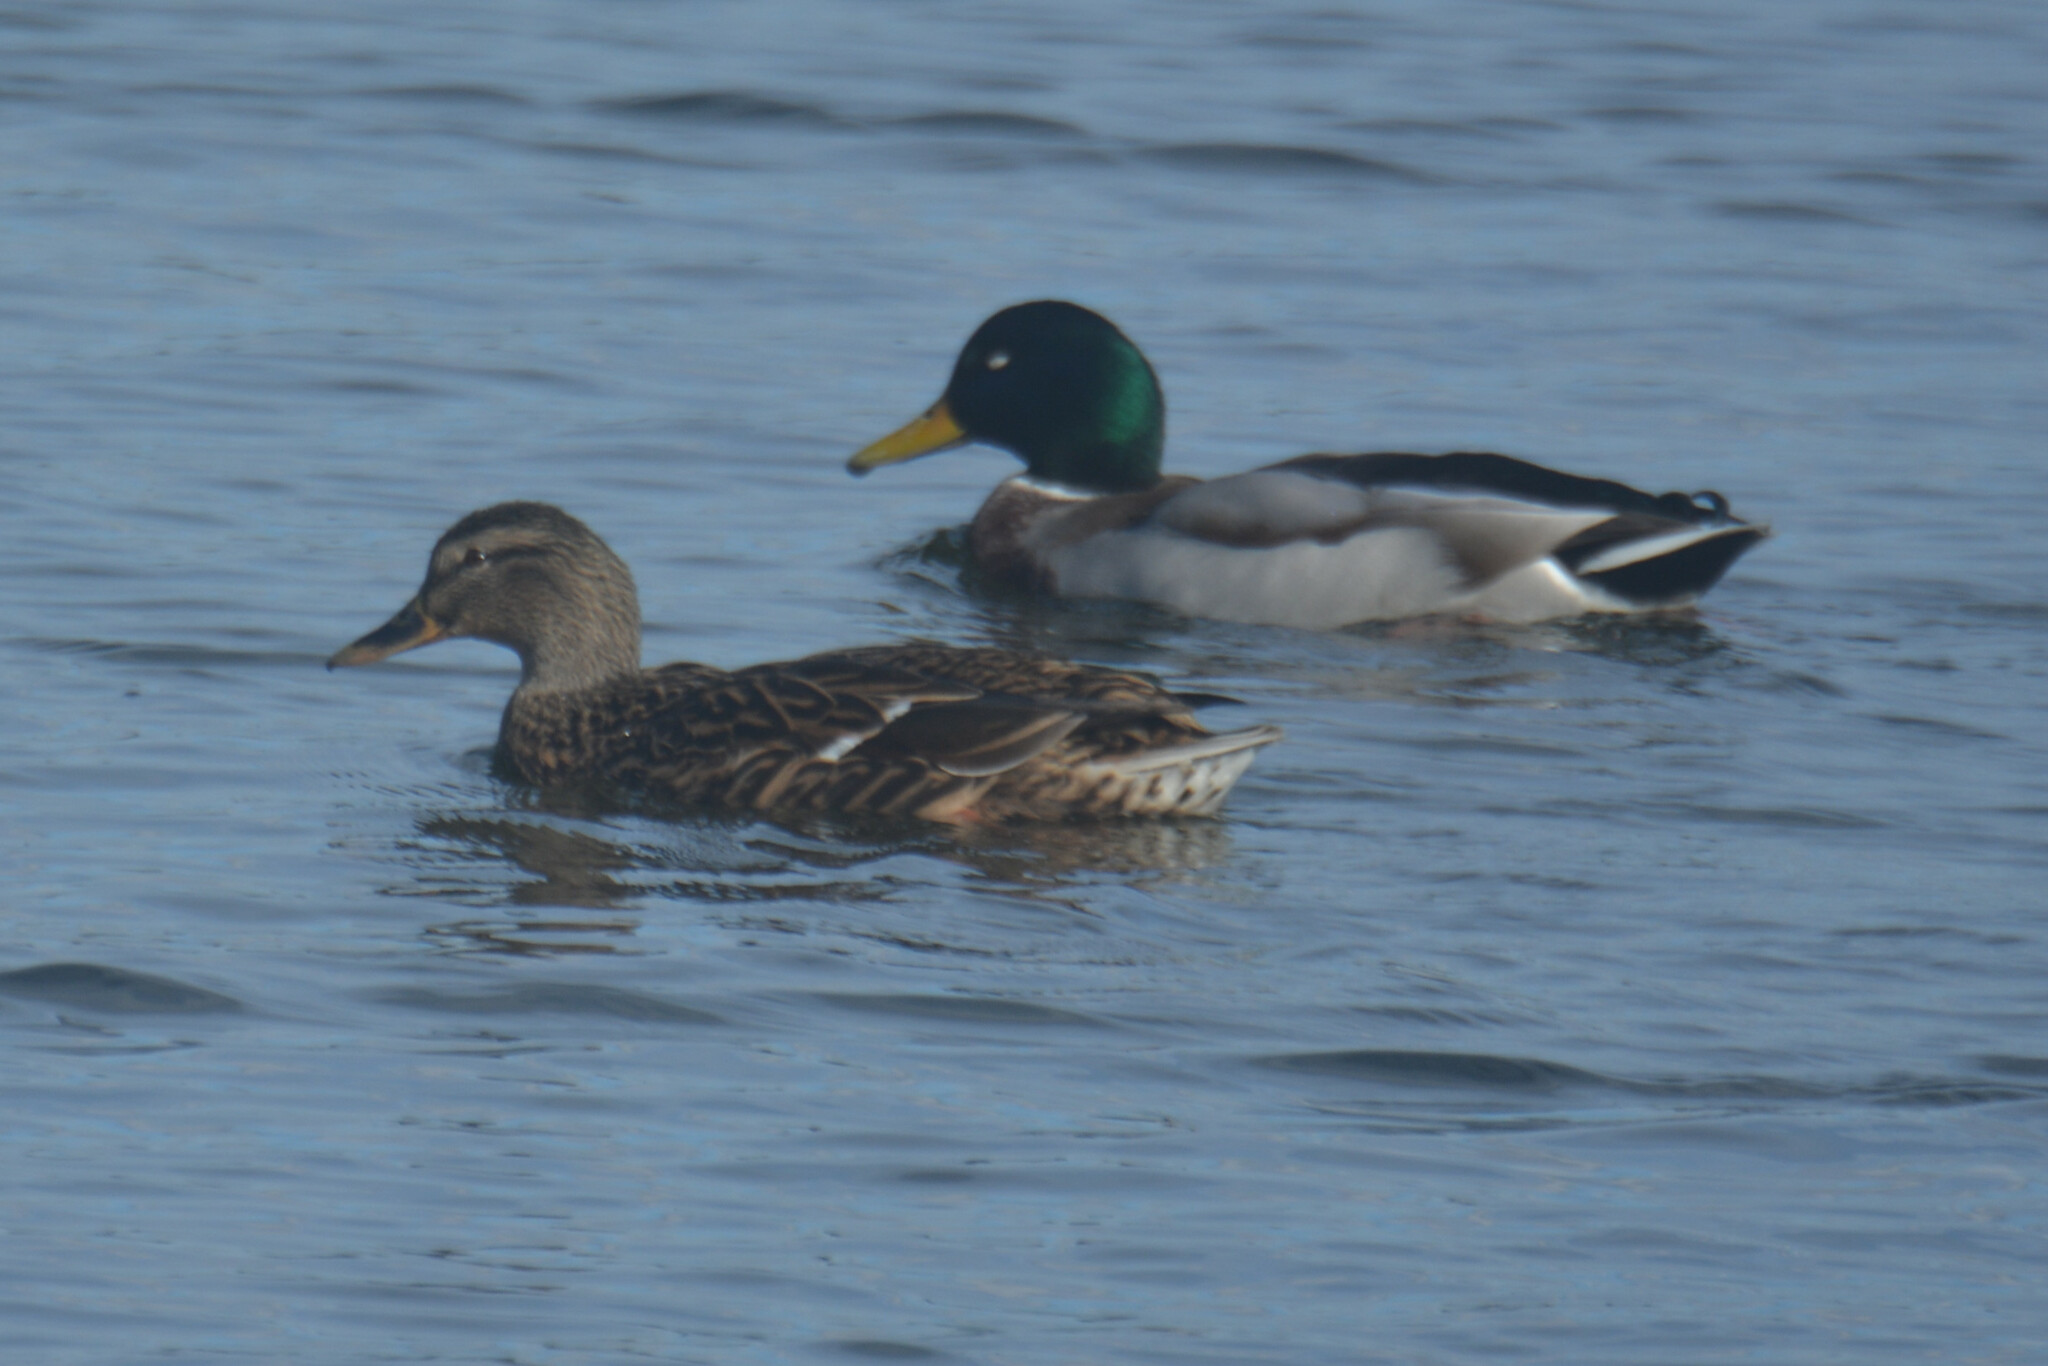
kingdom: Animalia
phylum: Chordata
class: Aves
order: Anseriformes
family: Anatidae
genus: Anas
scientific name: Anas platyrhynchos
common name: Mallard
